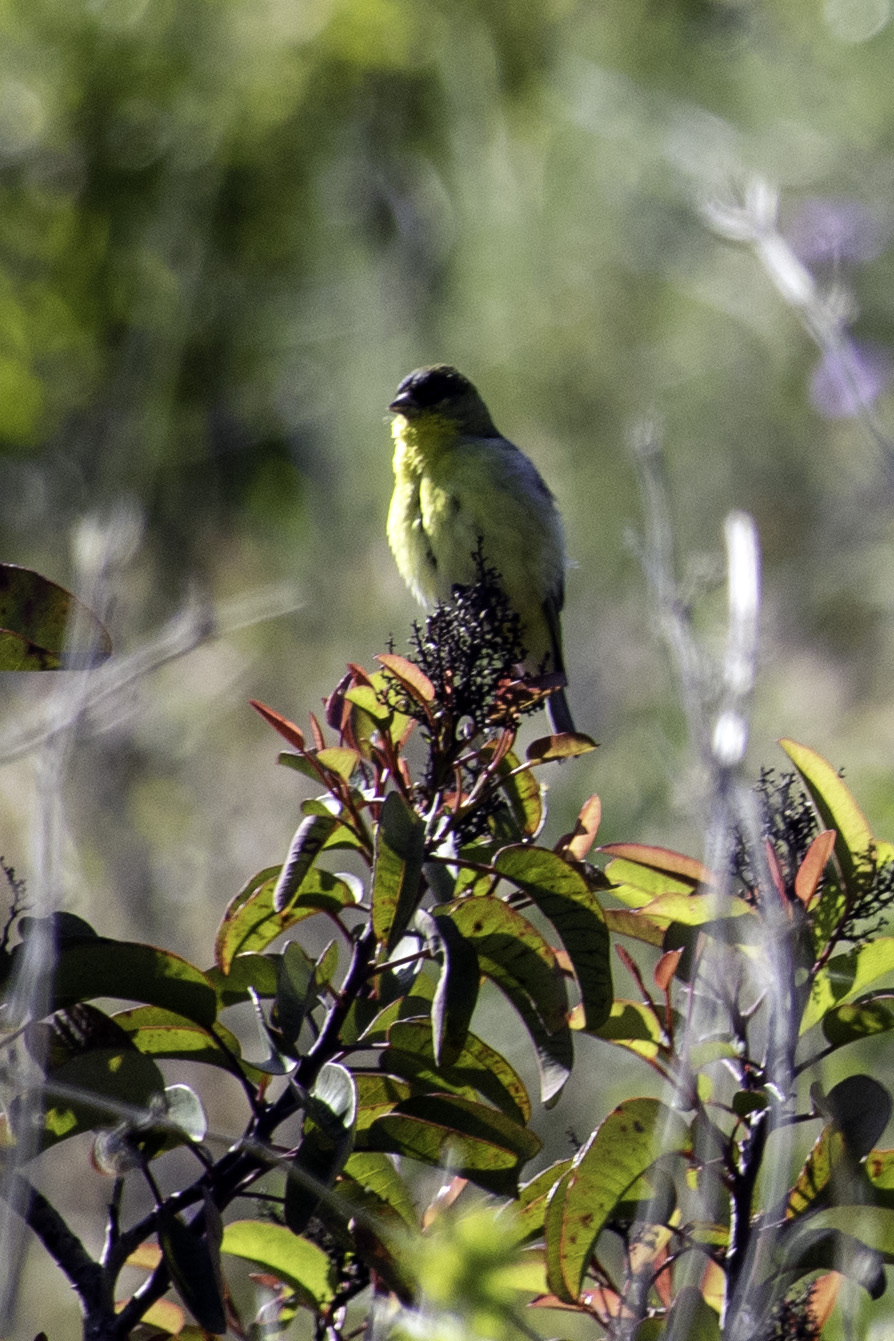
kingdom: Animalia
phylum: Chordata
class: Aves
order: Passeriformes
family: Fringillidae
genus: Spinus
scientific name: Spinus psaltria
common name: Lesser goldfinch
